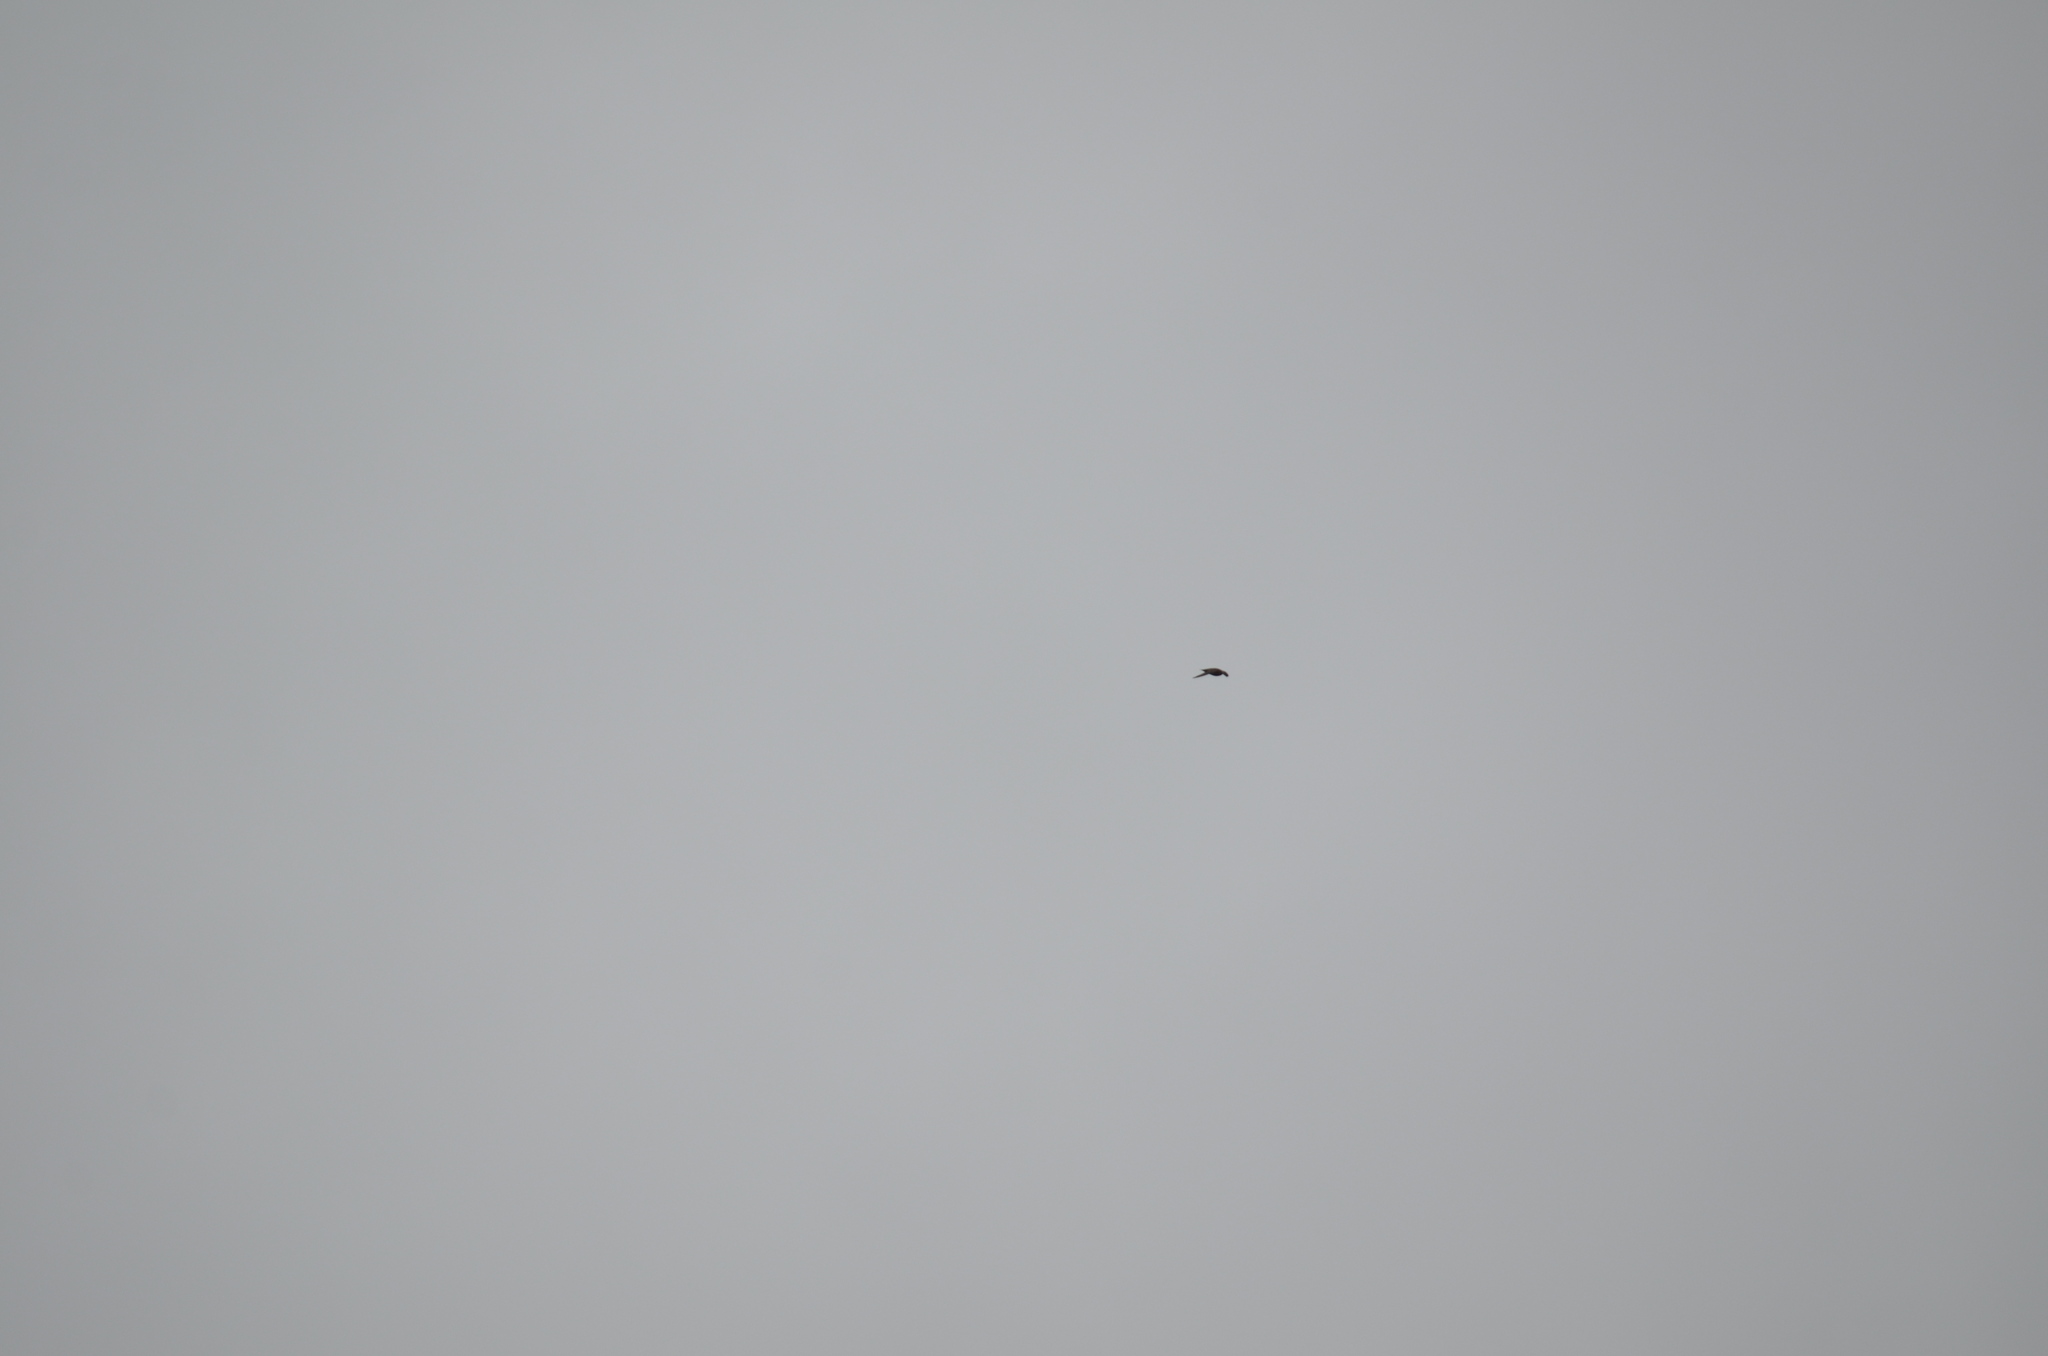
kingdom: Animalia
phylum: Chordata
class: Aves
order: Apodiformes
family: Apodidae
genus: Chaetura
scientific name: Chaetura vauxi
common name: Vaux's swift
